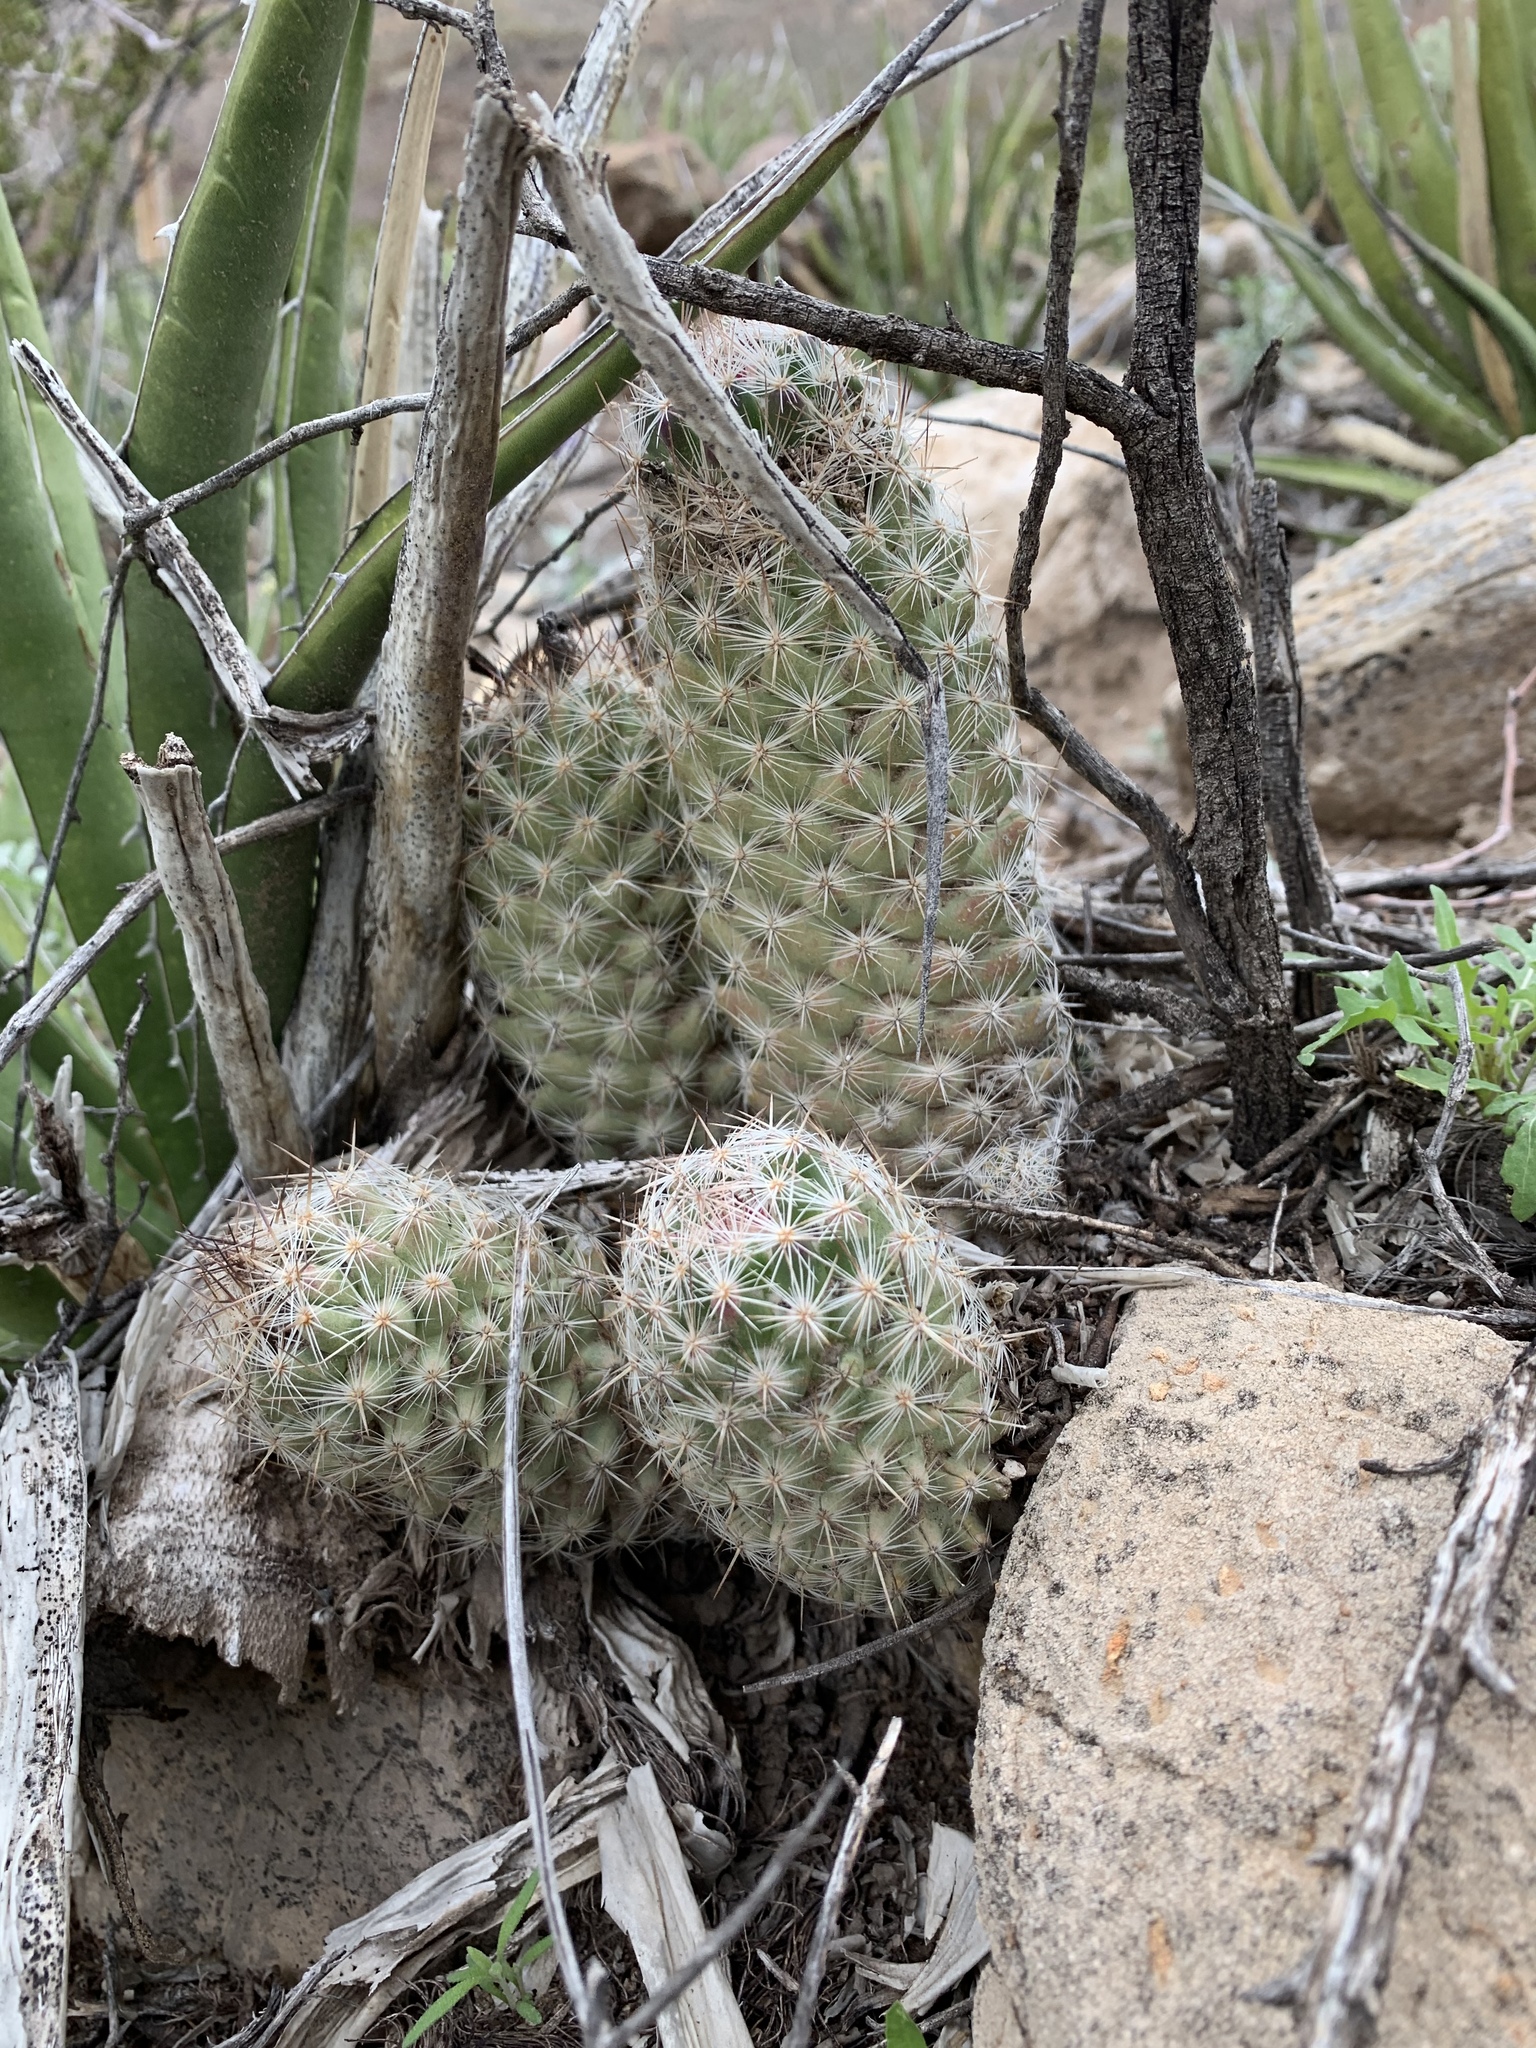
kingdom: Plantae
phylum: Tracheophyta
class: Magnoliopsida
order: Caryophyllales
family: Cactaceae
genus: Pelecyphora
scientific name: Pelecyphora tuberculosa
